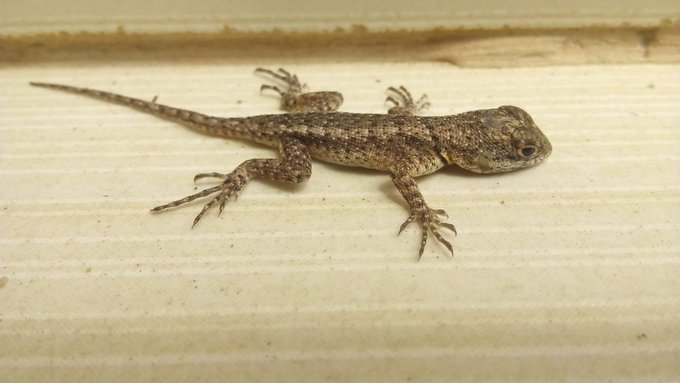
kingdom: Animalia
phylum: Chordata
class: Squamata
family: Tropiduridae
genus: Tropidurus
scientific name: Tropidurus hispidus
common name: Peters' lava lizard
